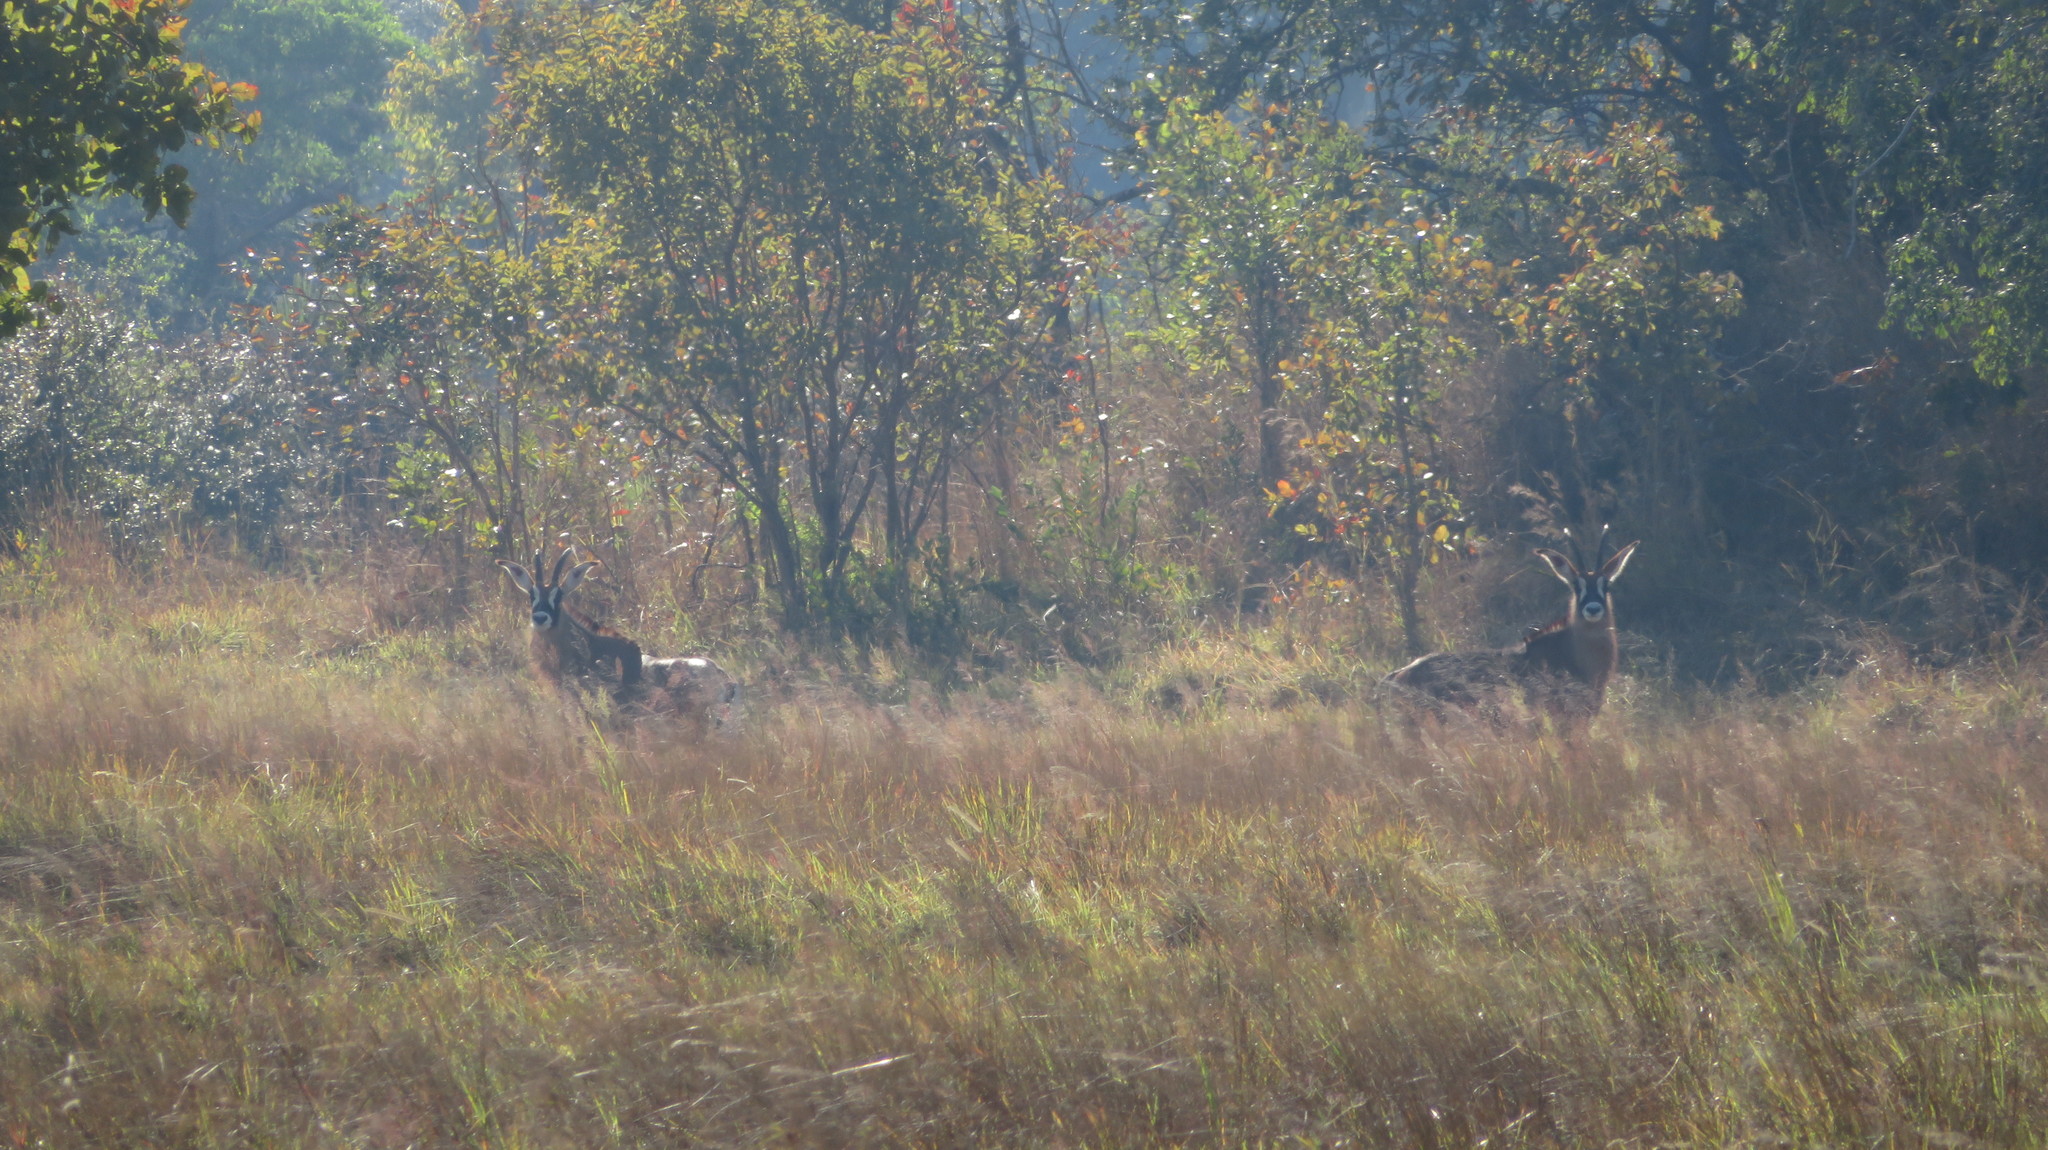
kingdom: Animalia
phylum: Chordata
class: Mammalia
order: Artiodactyla
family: Bovidae
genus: Hippotragus
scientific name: Hippotragus equinus
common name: Roan antelope
